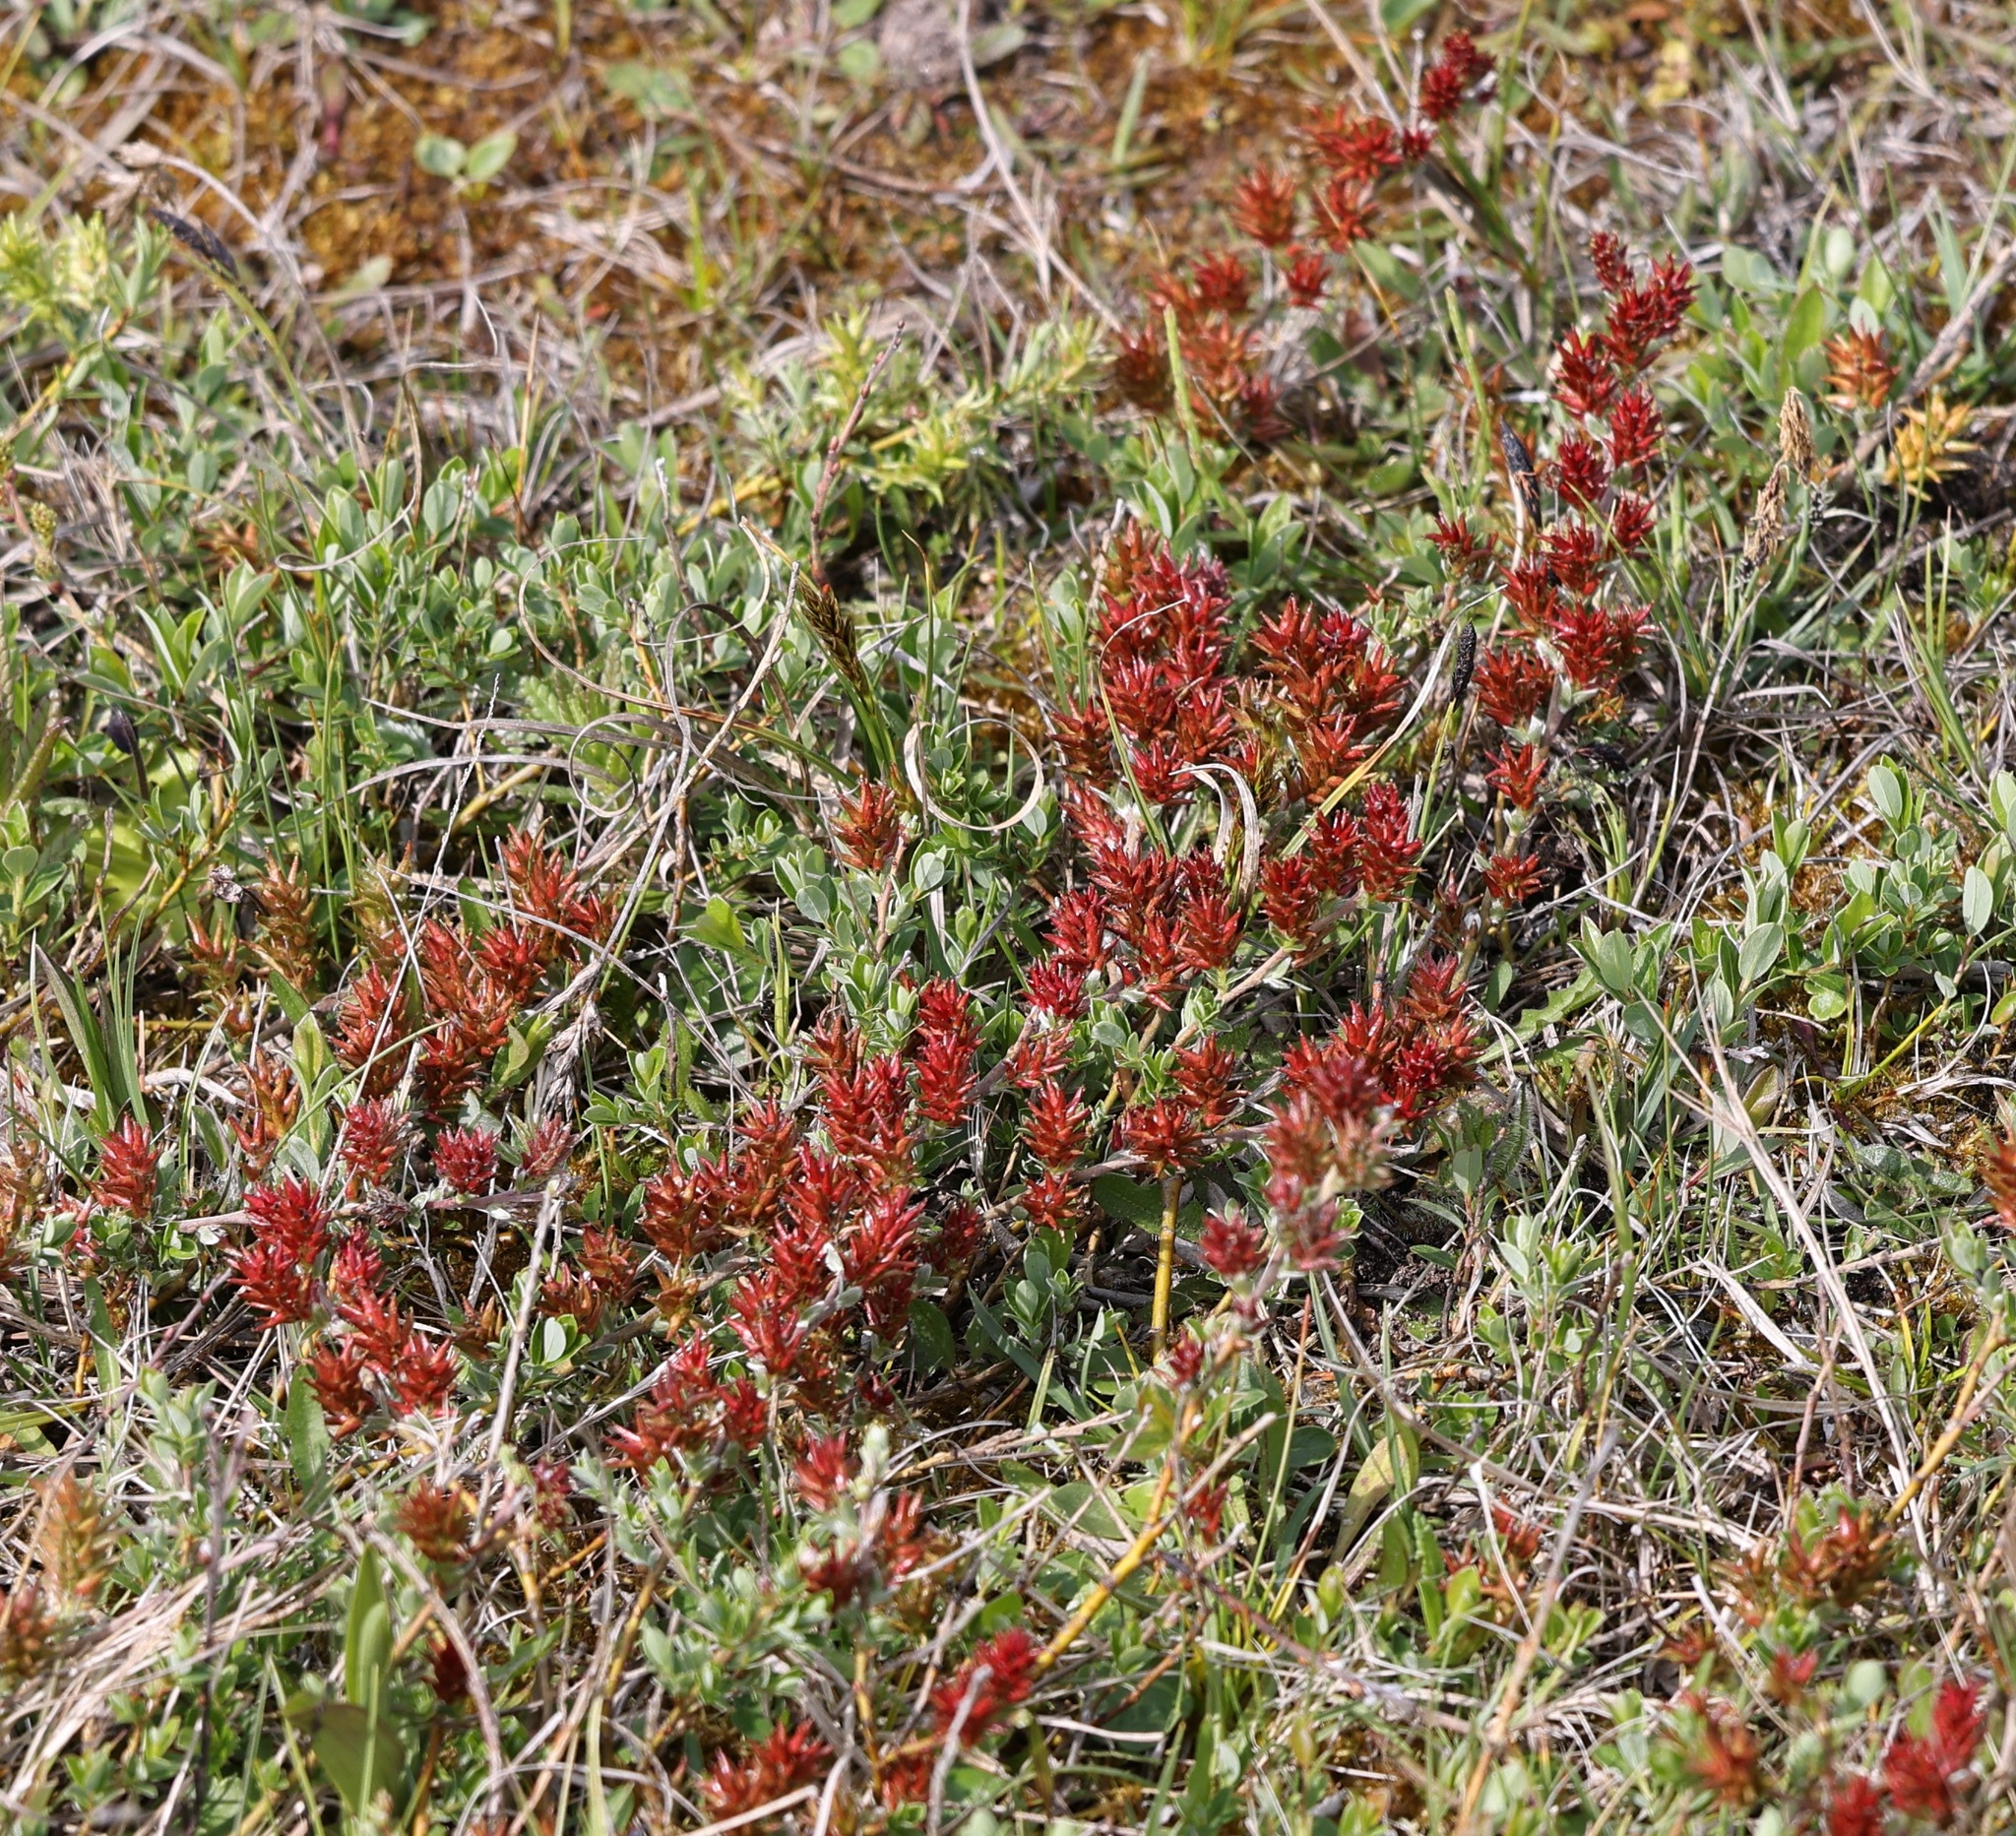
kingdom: Plantae
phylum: Tracheophyta
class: Magnoliopsida
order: Malpighiales
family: Salicaceae
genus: Salix
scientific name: Salix repens
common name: Creeping willow
